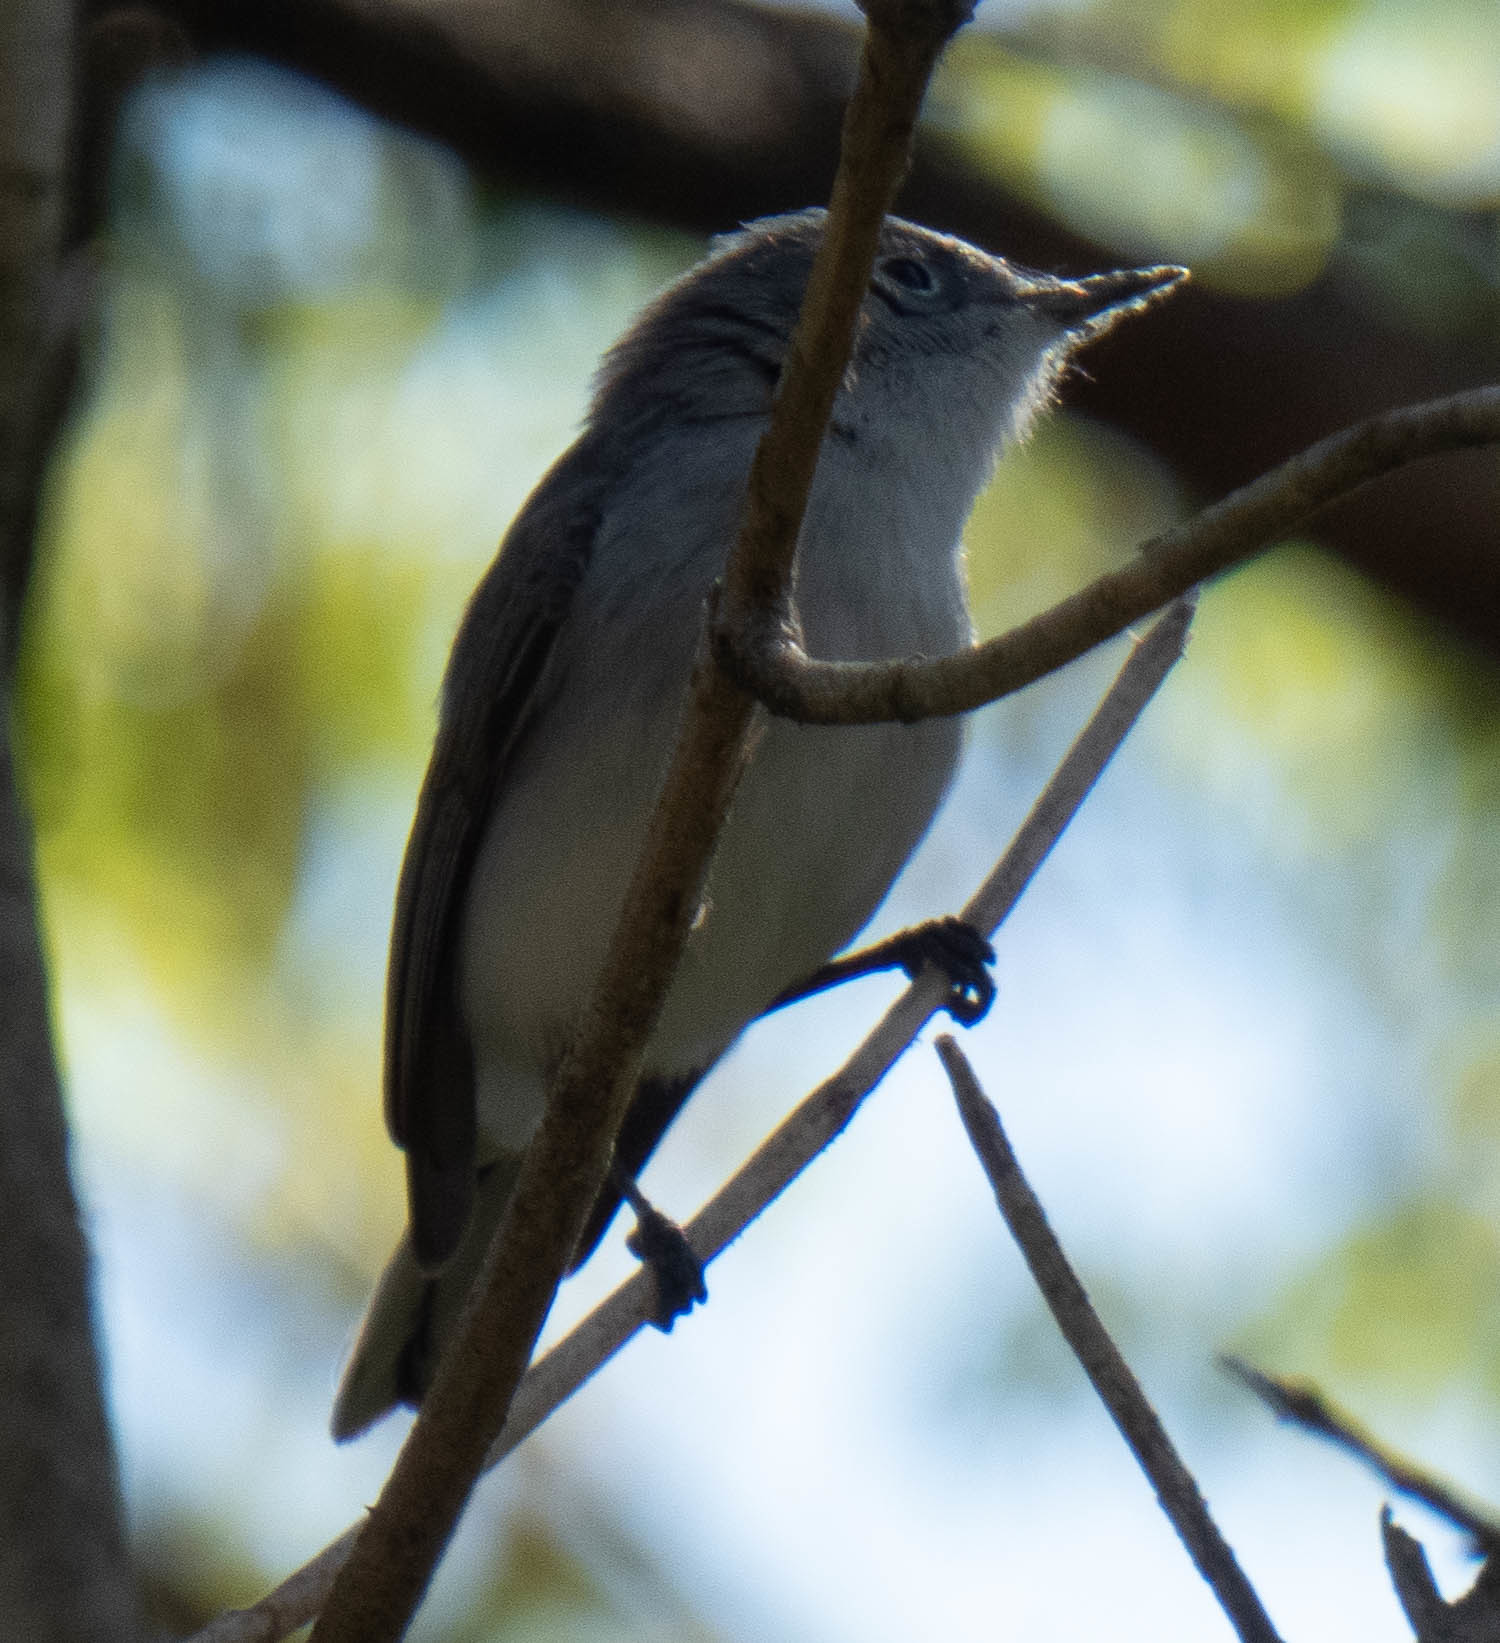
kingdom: Animalia
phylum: Chordata
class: Aves
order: Passeriformes
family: Polioptilidae
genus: Polioptila
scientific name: Polioptila caerulea
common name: Blue-gray gnatcatcher
